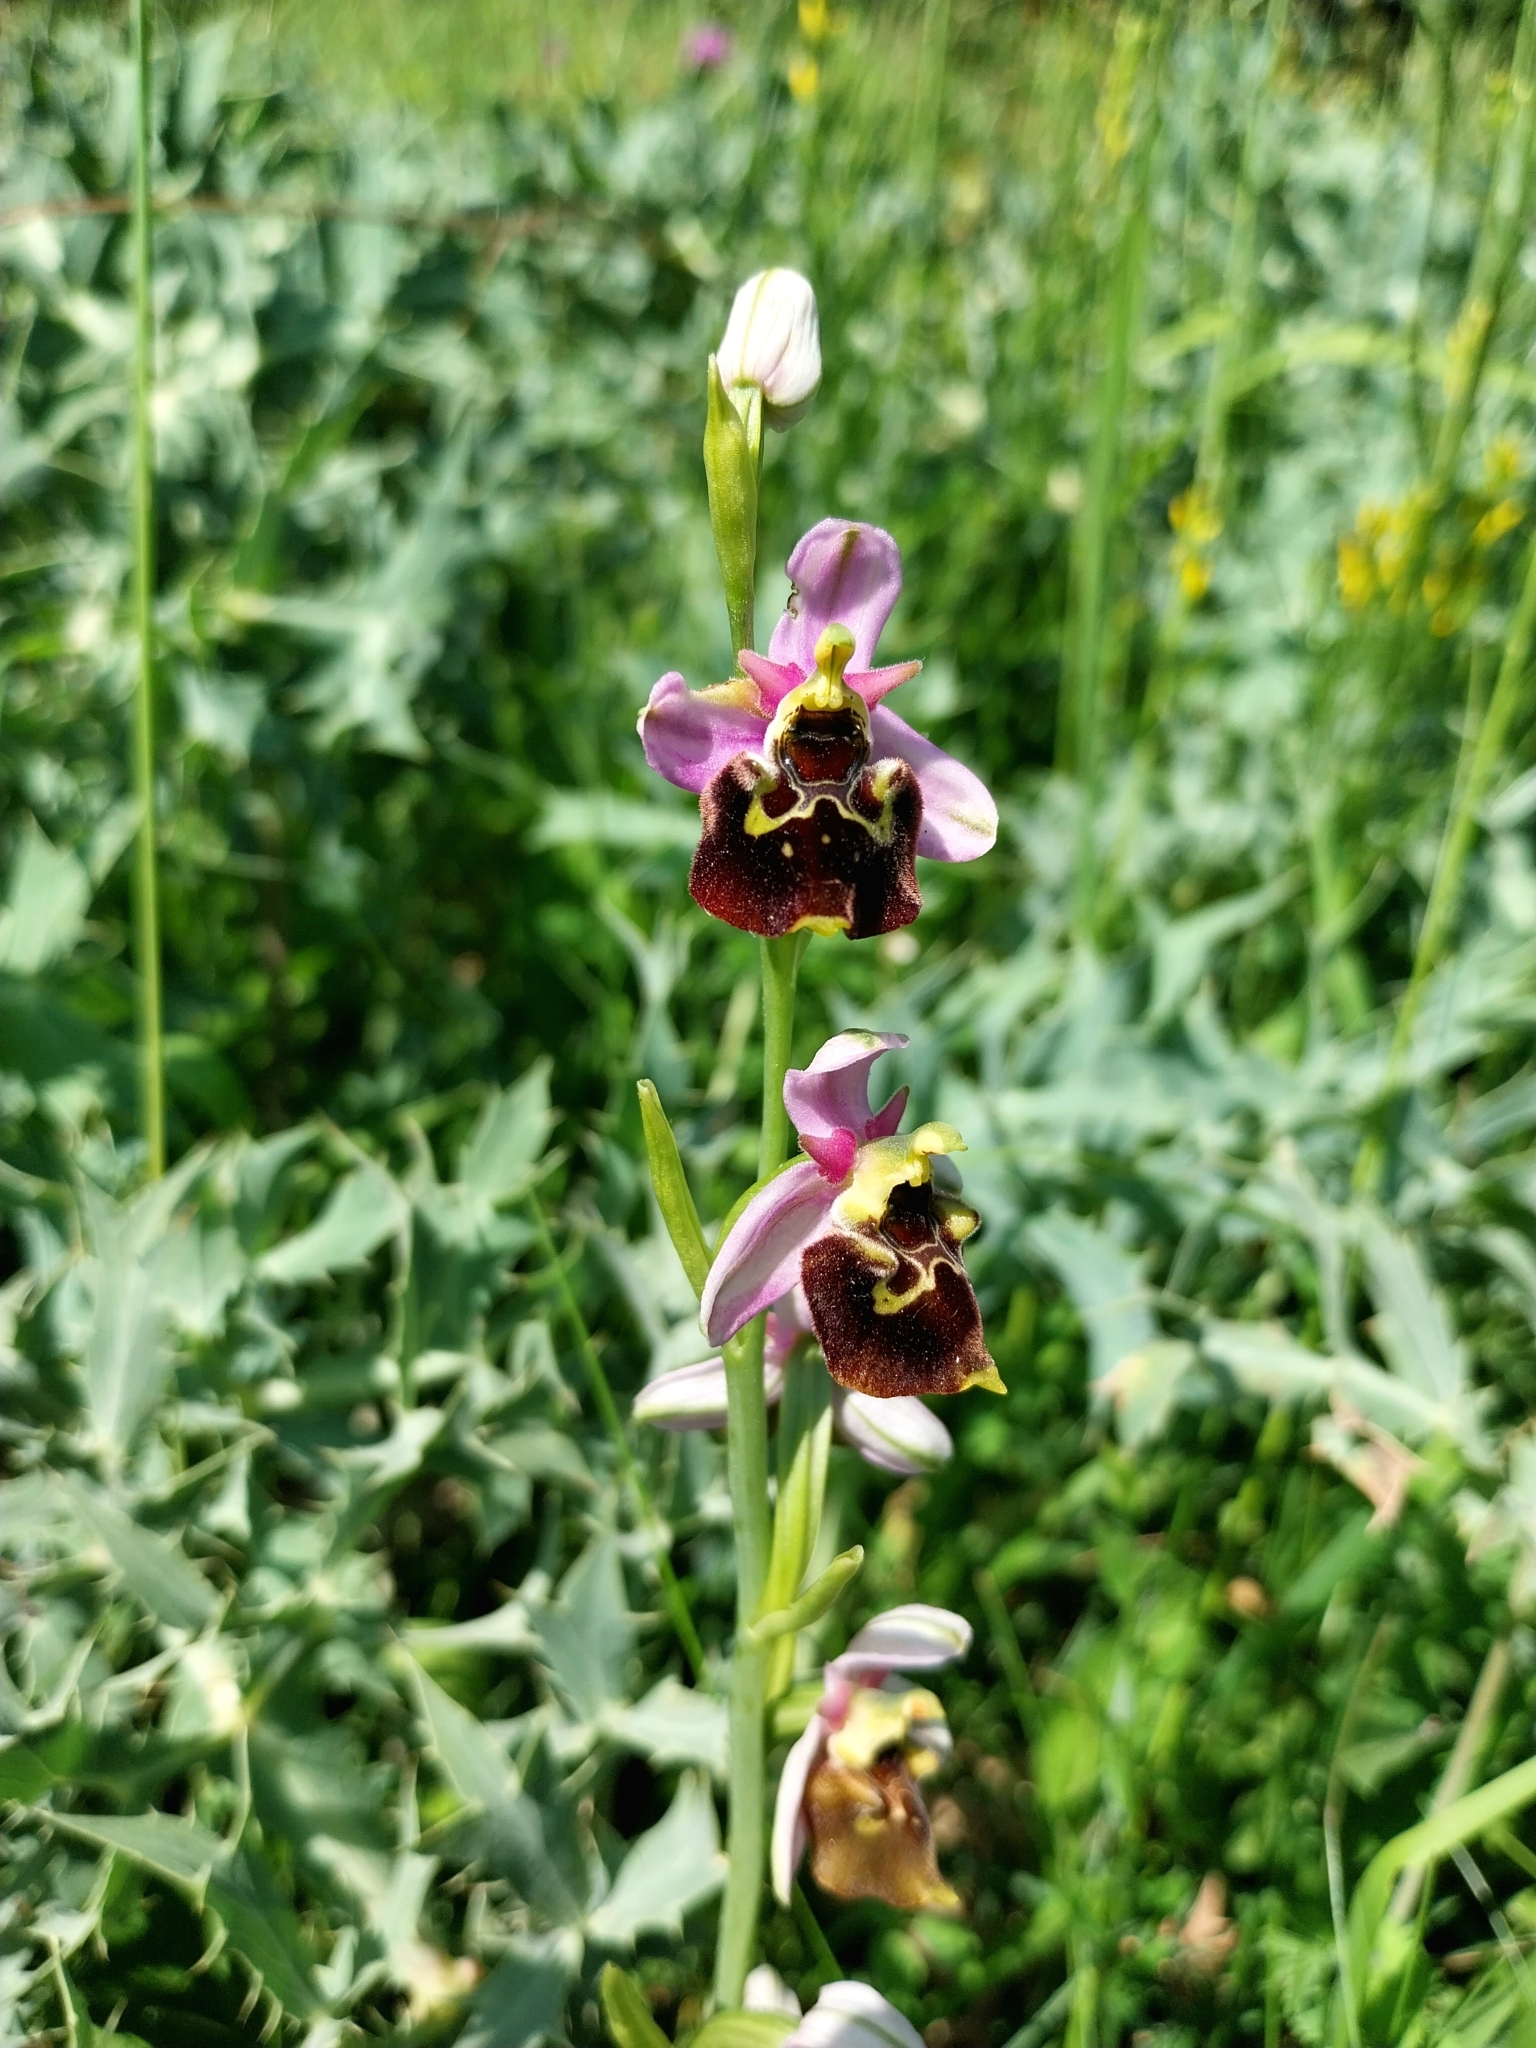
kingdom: Plantae
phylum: Tracheophyta
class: Liliopsida
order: Asparagales
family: Orchidaceae
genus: Ophrys
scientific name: Ophrys holosericea
